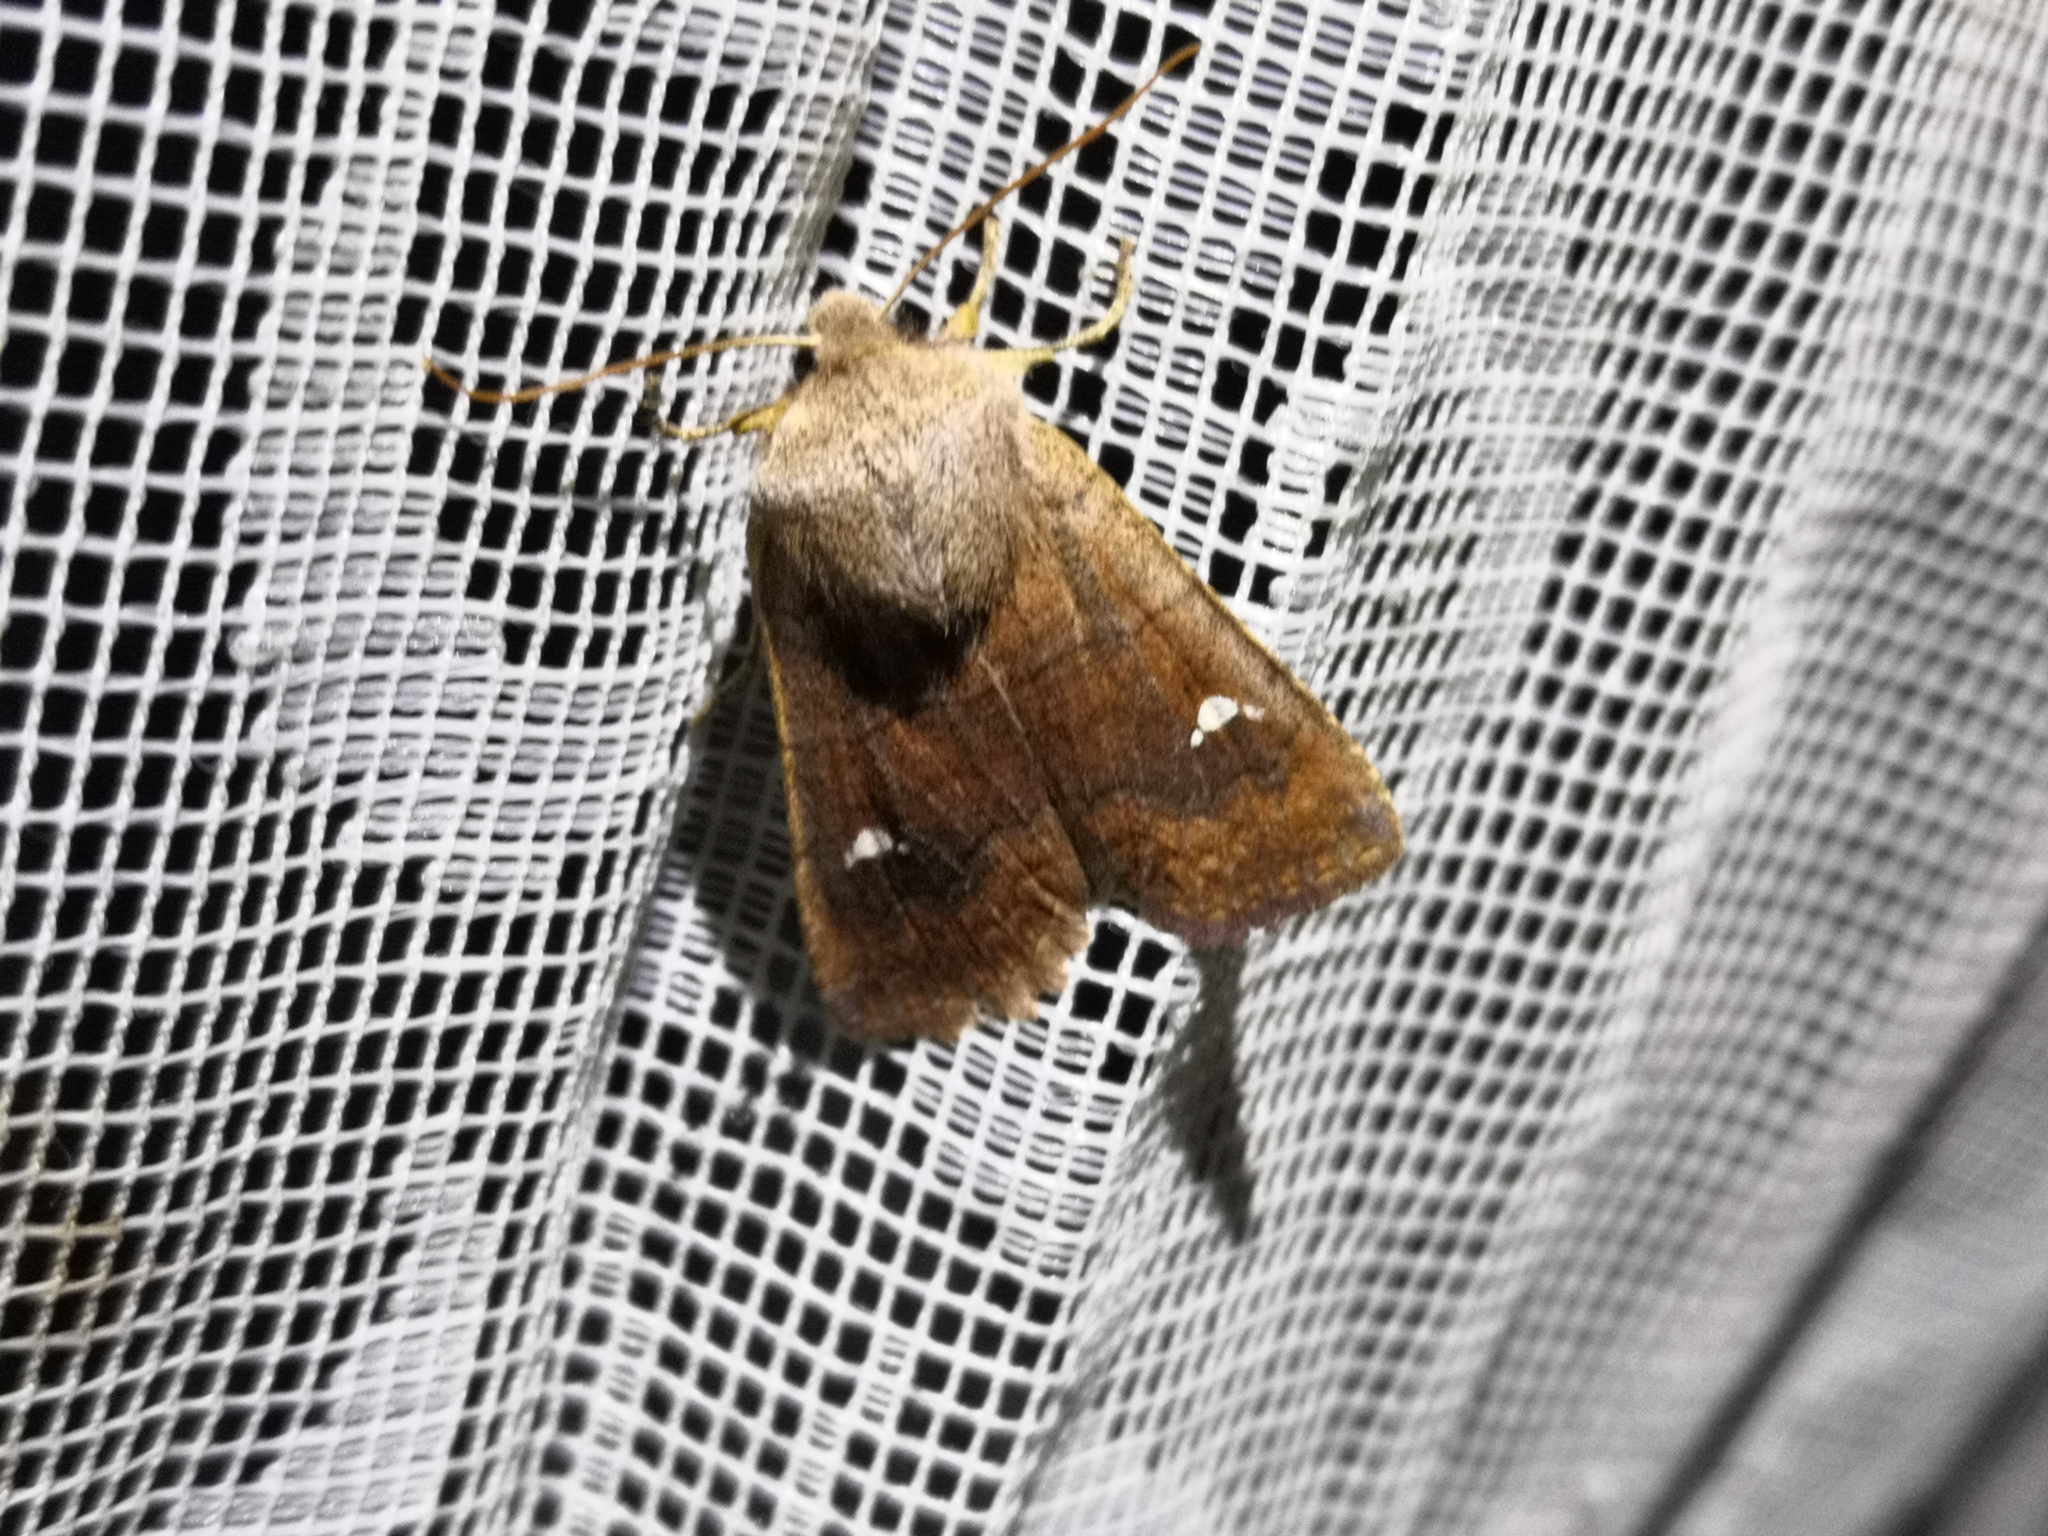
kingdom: Animalia
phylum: Arthropoda
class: Insecta
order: Lepidoptera
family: Noctuidae
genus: Eupsilia
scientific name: Eupsilia transversa
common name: Satellite
